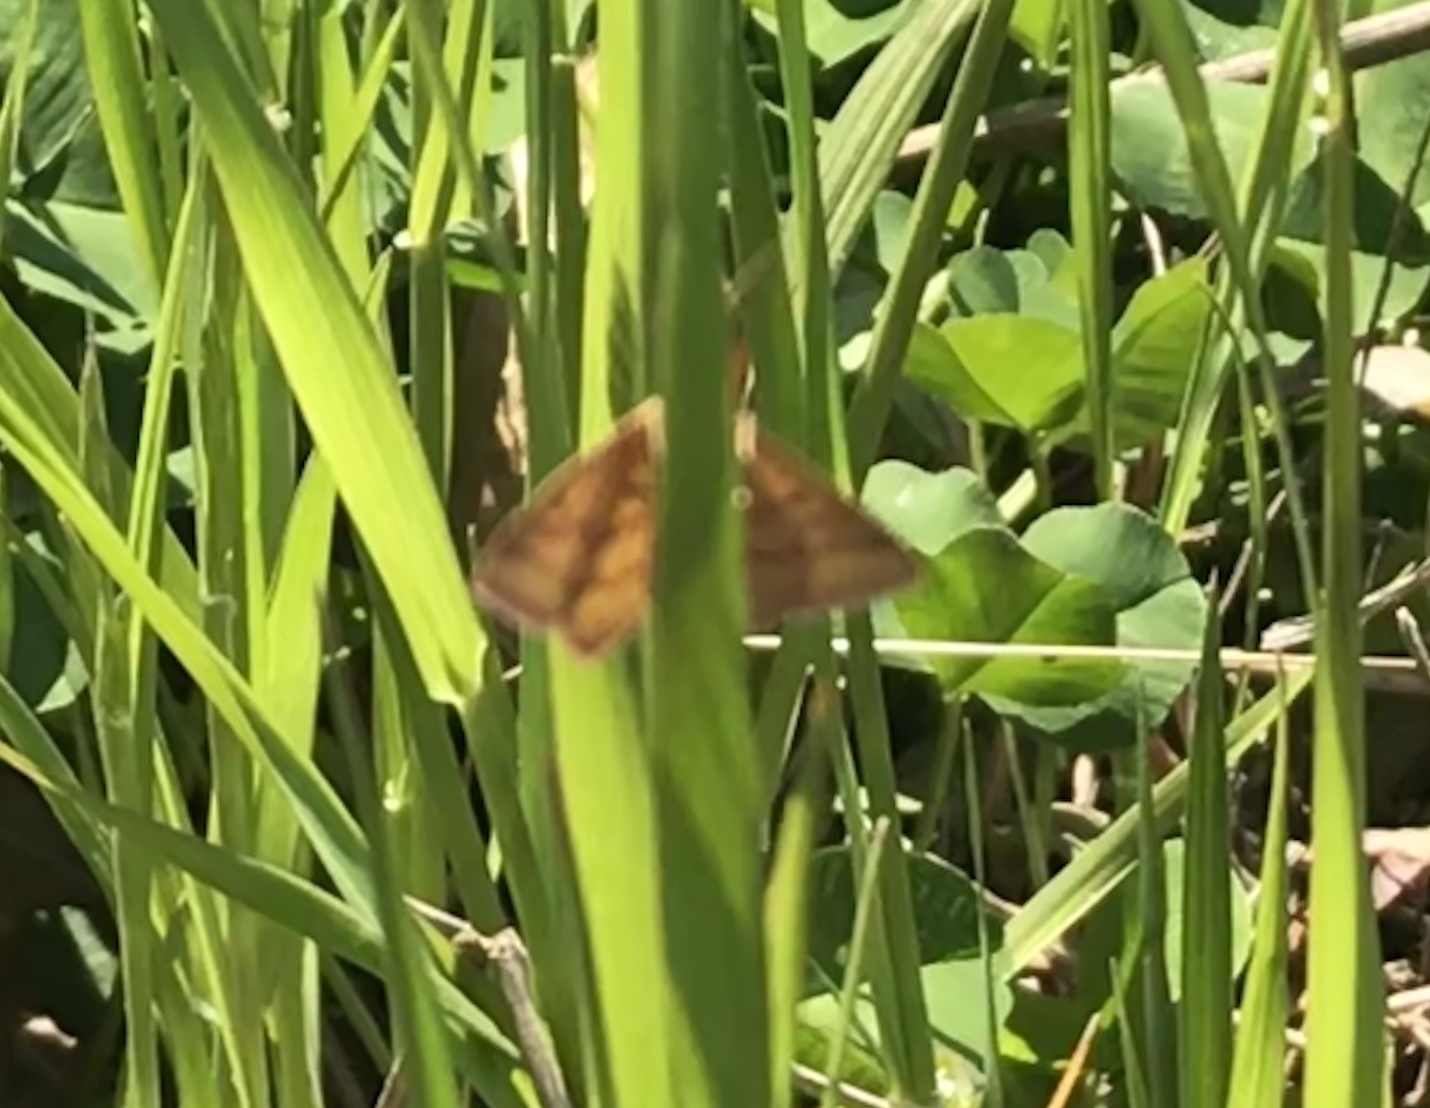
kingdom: Animalia
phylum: Arthropoda
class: Insecta
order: Lepidoptera
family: Geometridae
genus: Haematopis
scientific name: Haematopis grataria
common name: Chickweed geometer
